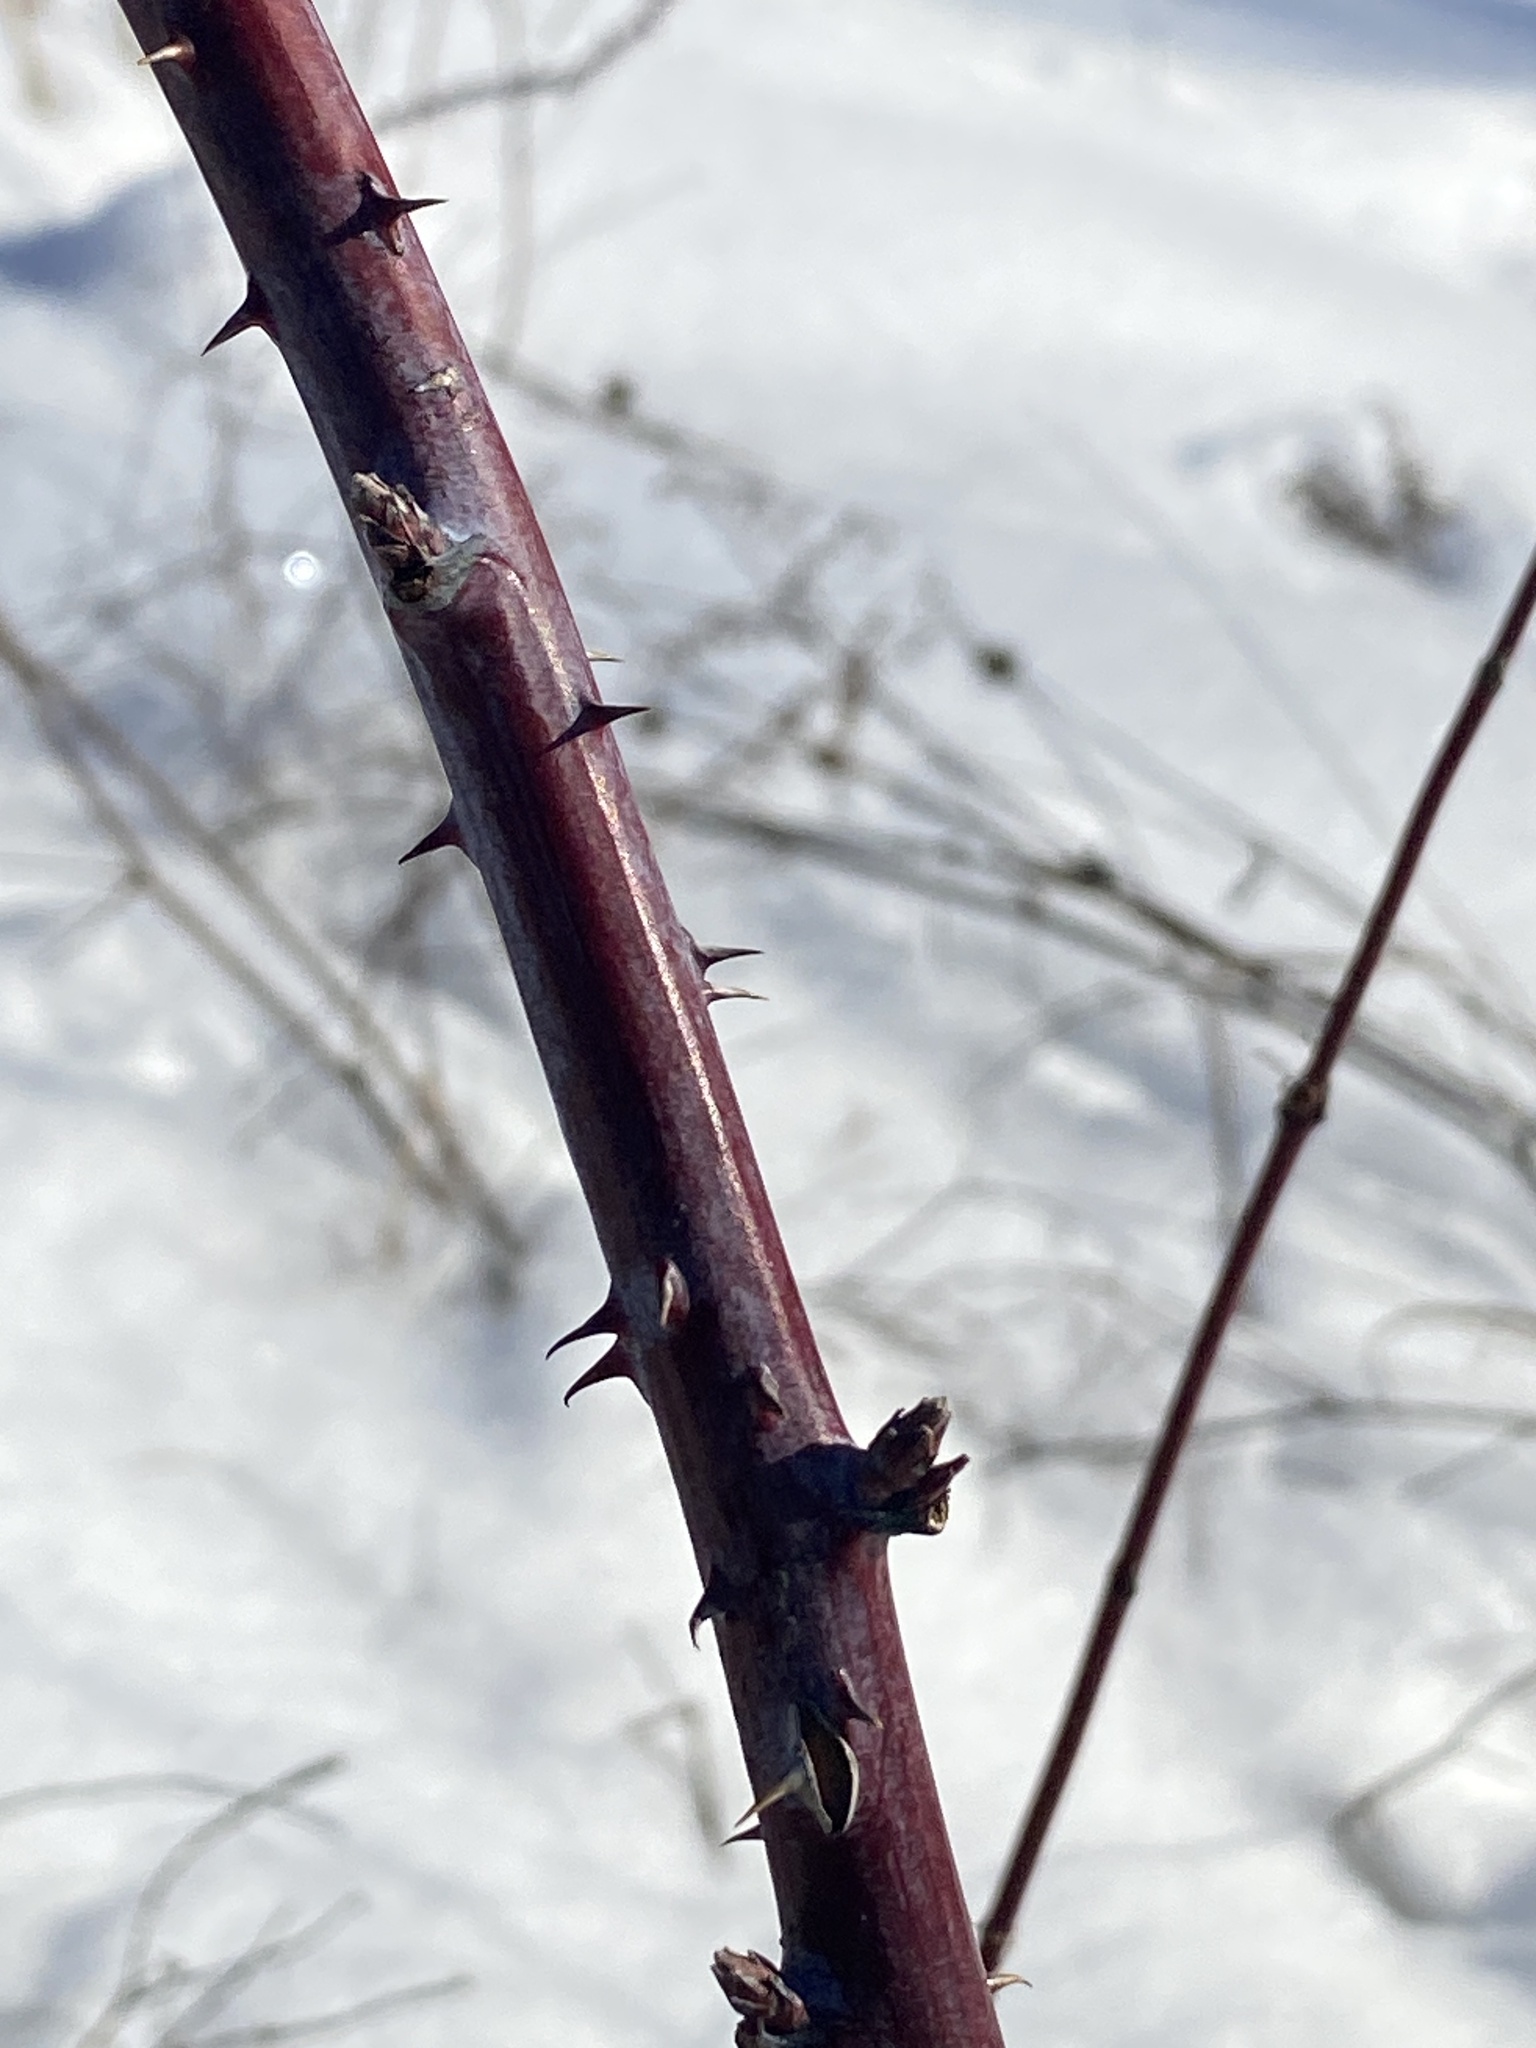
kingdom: Plantae
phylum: Tracheophyta
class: Magnoliopsida
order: Rosales
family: Rosaceae
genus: Rubus
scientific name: Rubus occidentalis
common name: Black raspberry
